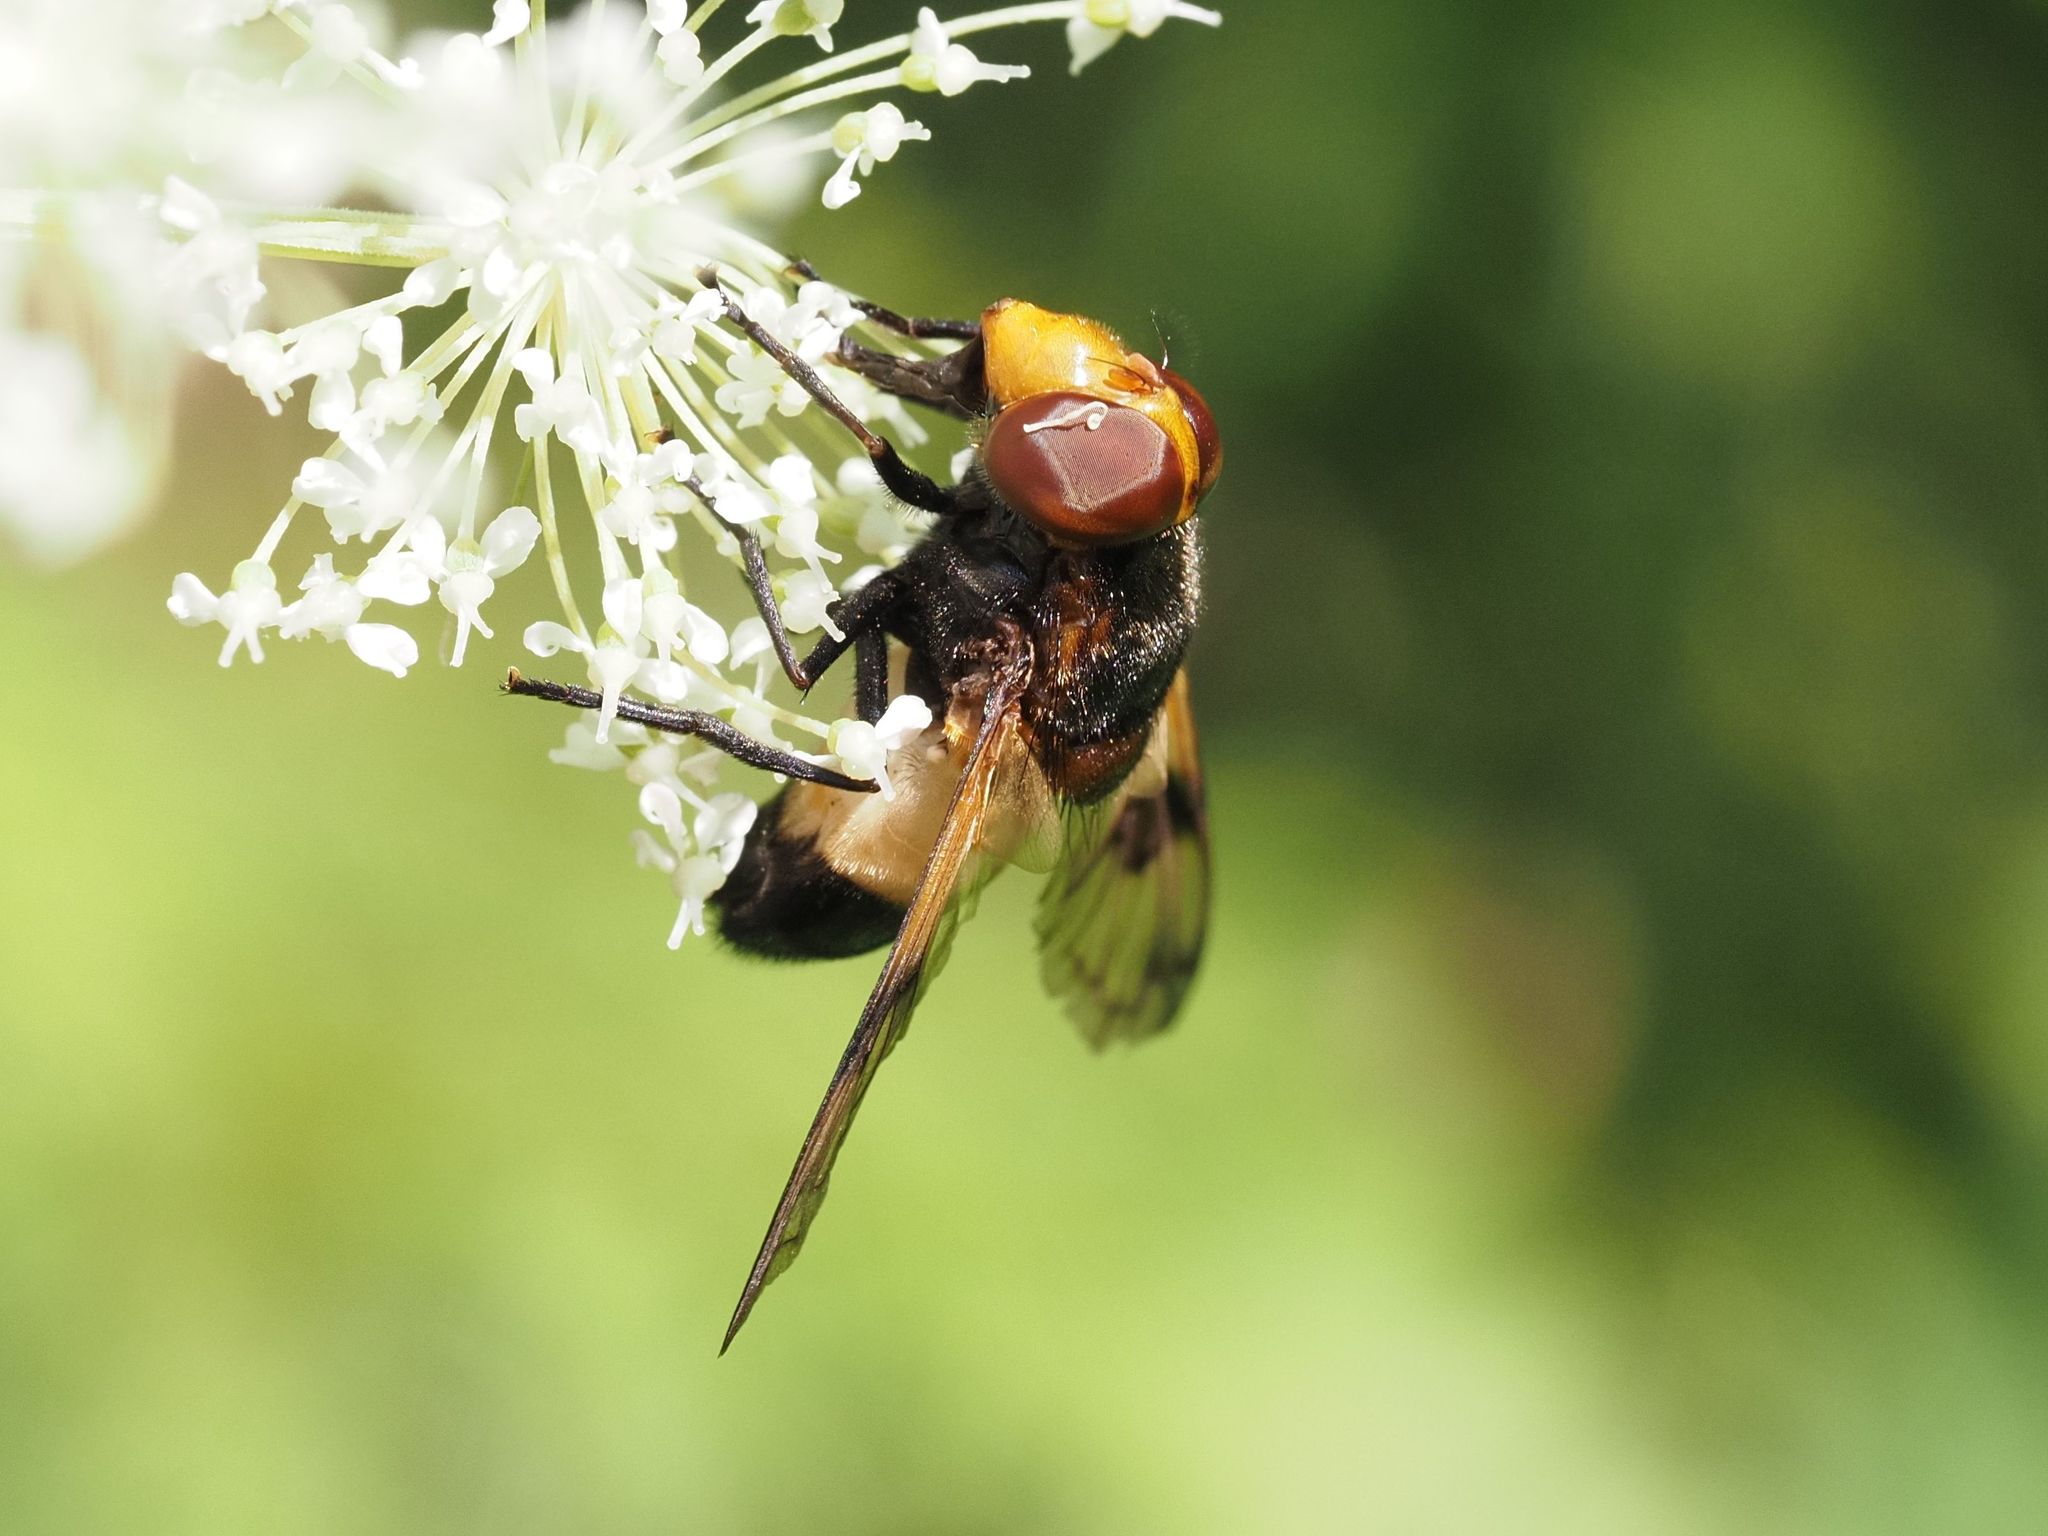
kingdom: Animalia
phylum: Arthropoda
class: Insecta
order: Diptera
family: Syrphidae
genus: Volucella
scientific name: Volucella pellucens
